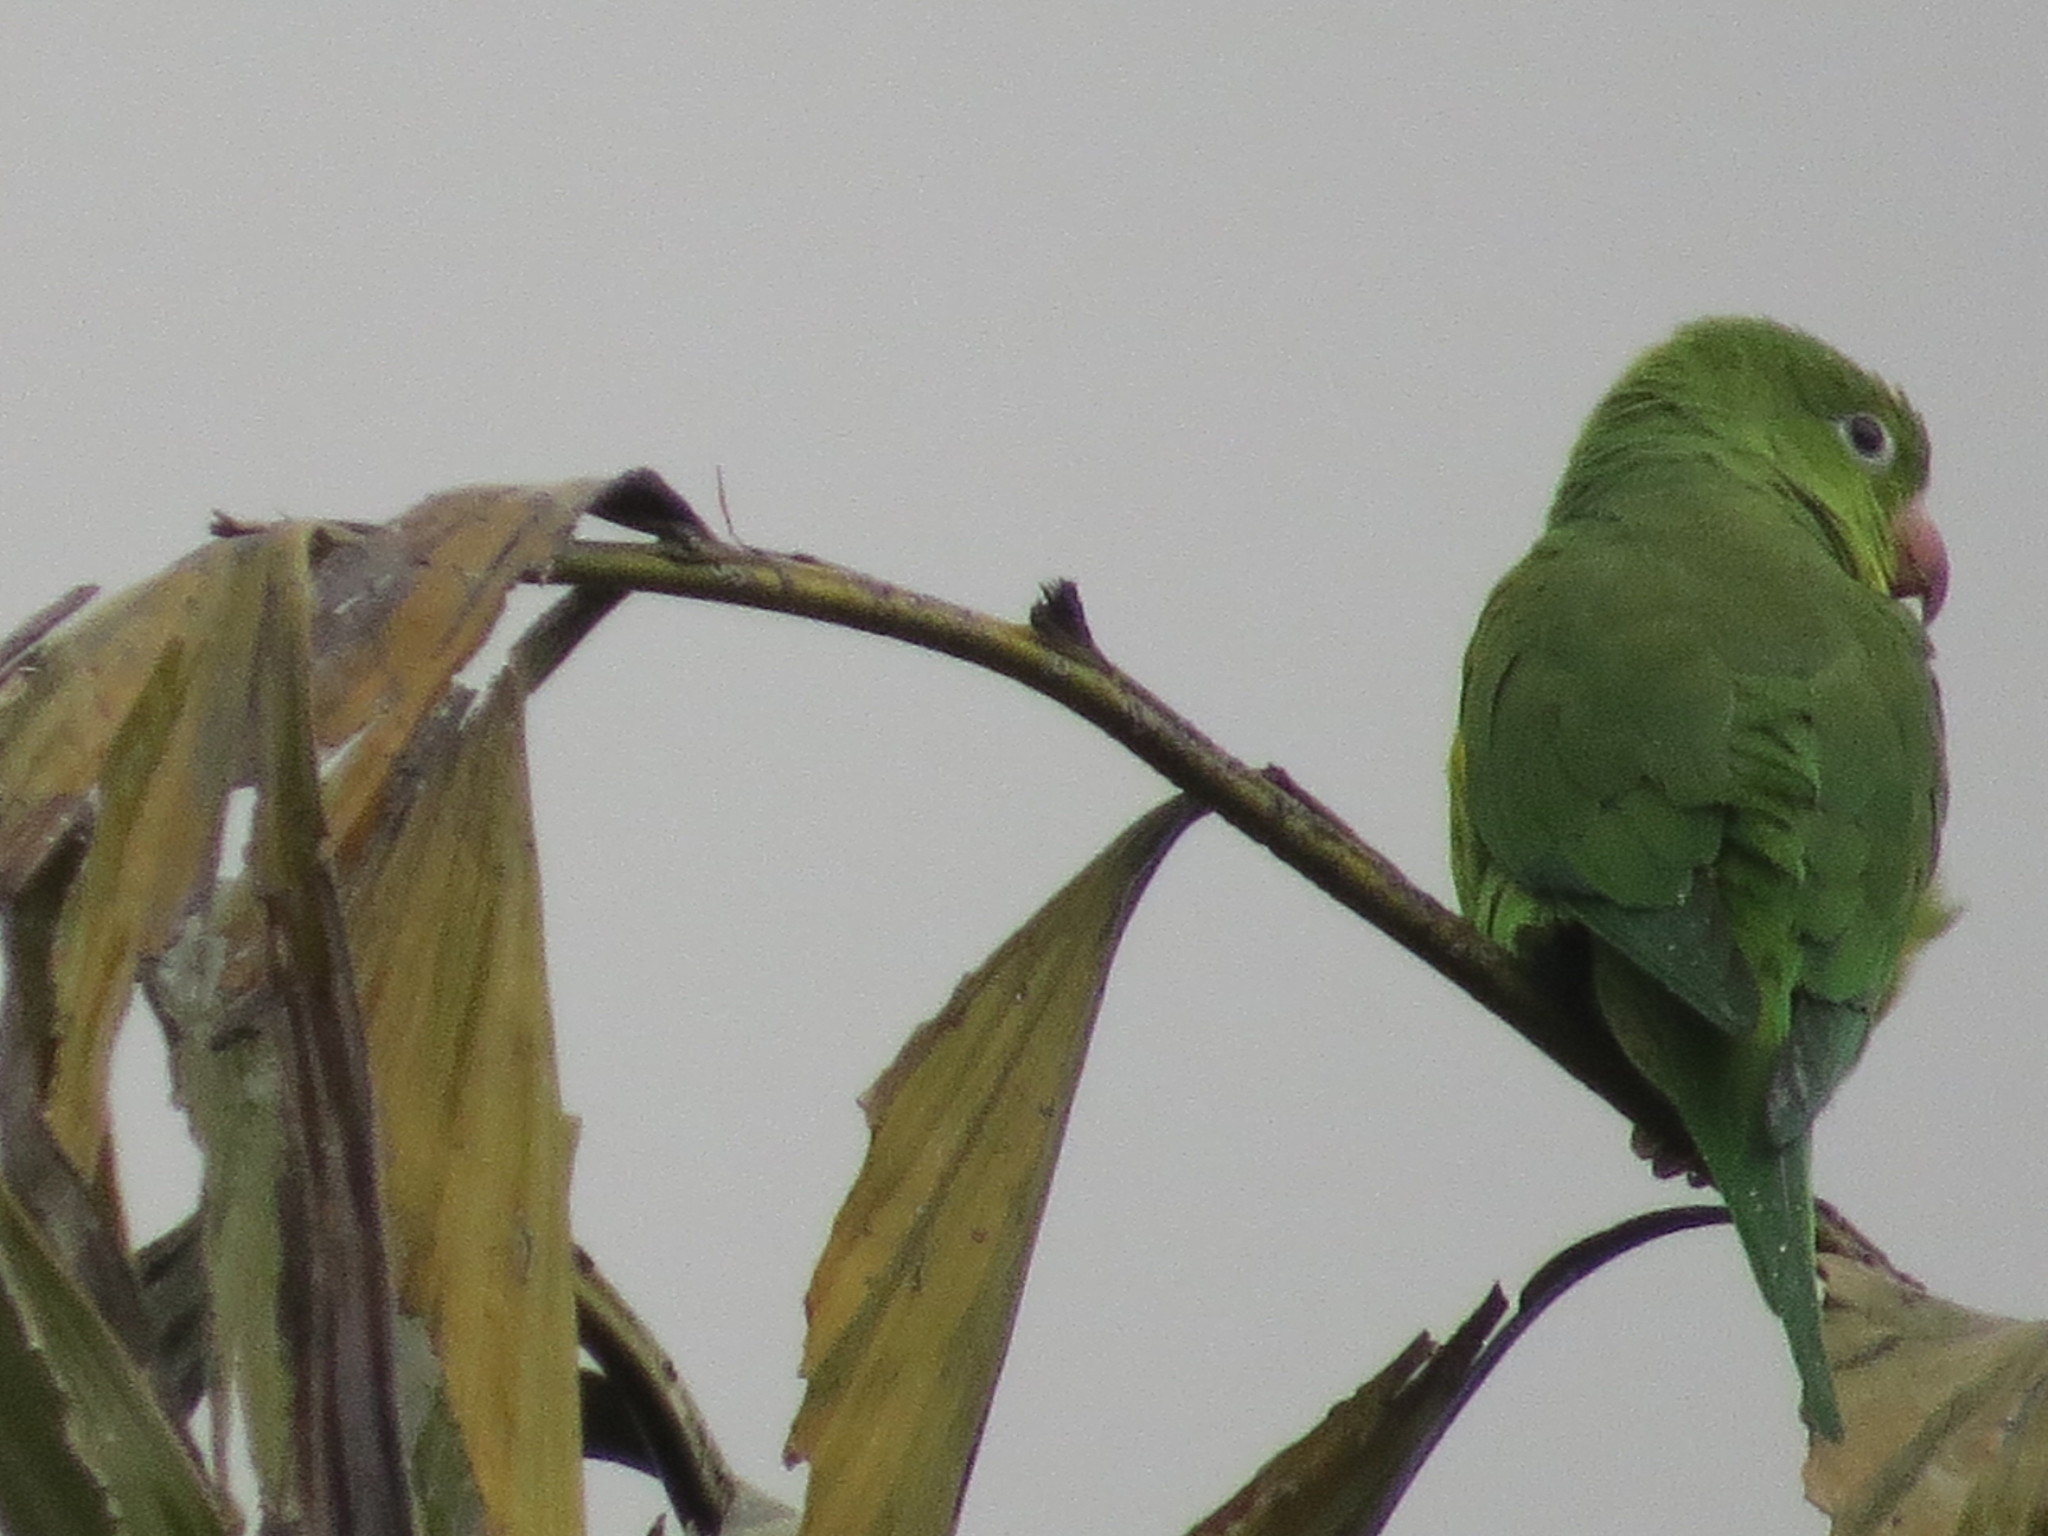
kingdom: Animalia
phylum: Chordata
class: Aves
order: Psittaciformes
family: Psittacidae
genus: Brotogeris
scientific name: Brotogeris chiriri
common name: Yellow-chevroned parakeet
